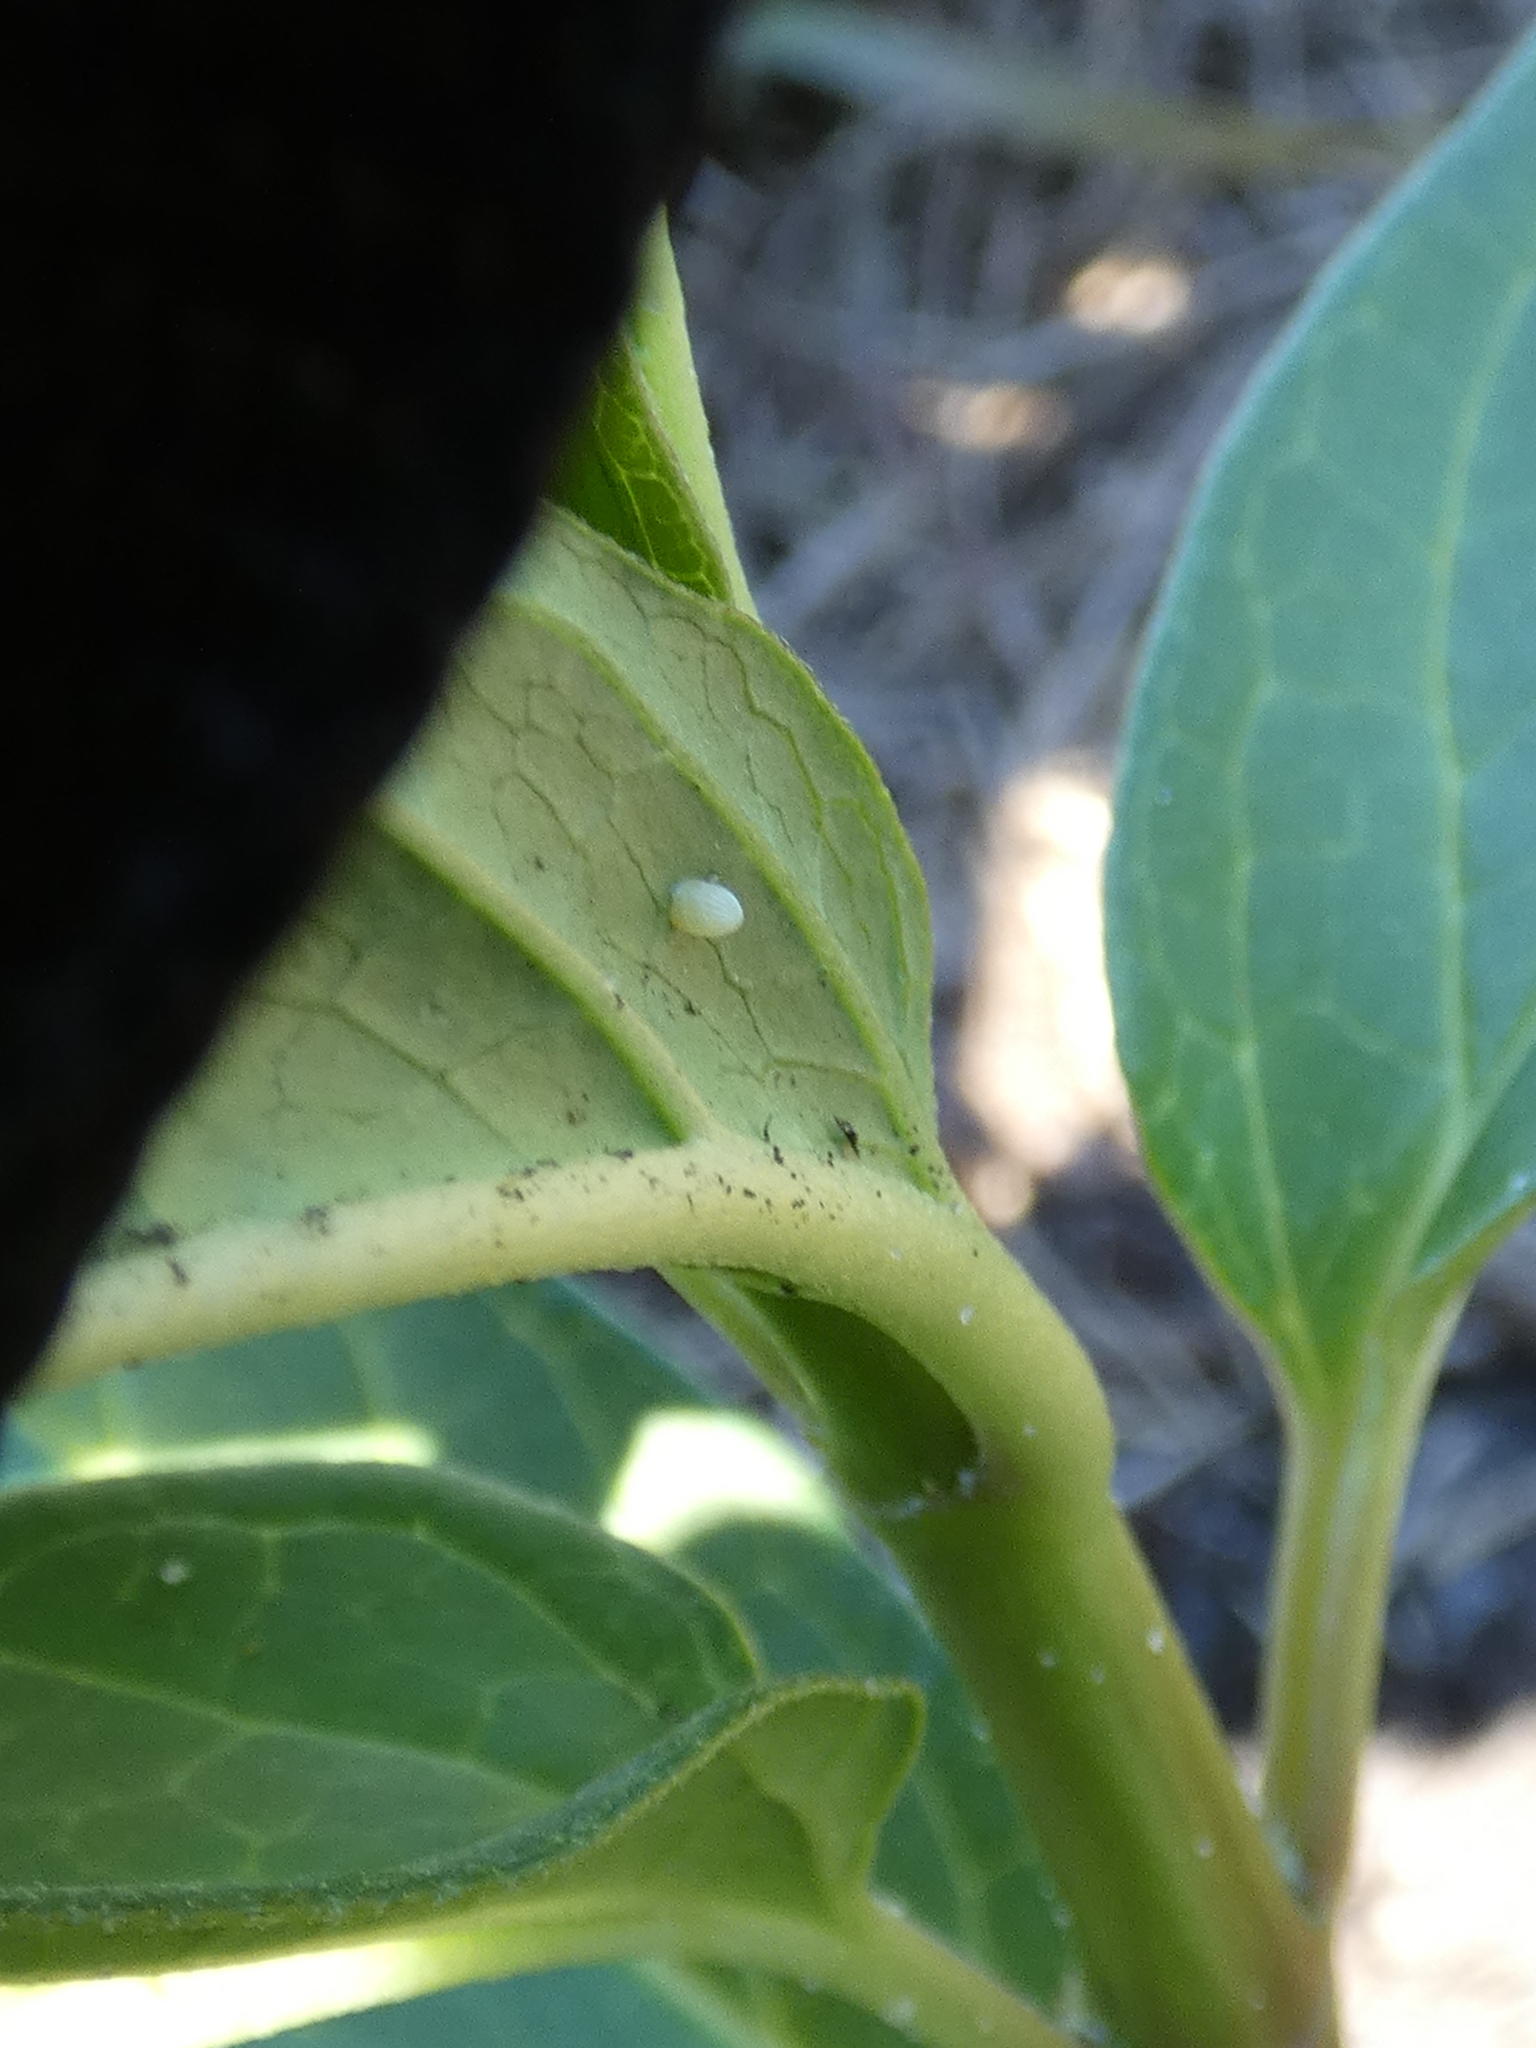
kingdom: Animalia
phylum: Arthropoda
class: Insecta
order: Lepidoptera
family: Nymphalidae
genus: Danaus
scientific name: Danaus plexippus
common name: Monarch
